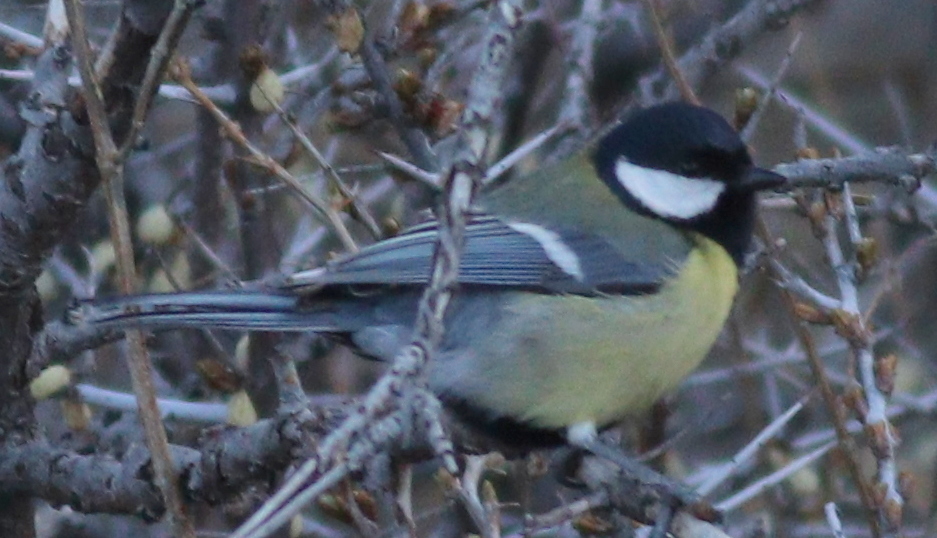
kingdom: Animalia
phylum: Chordata
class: Aves
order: Passeriformes
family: Paridae
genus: Parus
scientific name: Parus major
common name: Great tit
